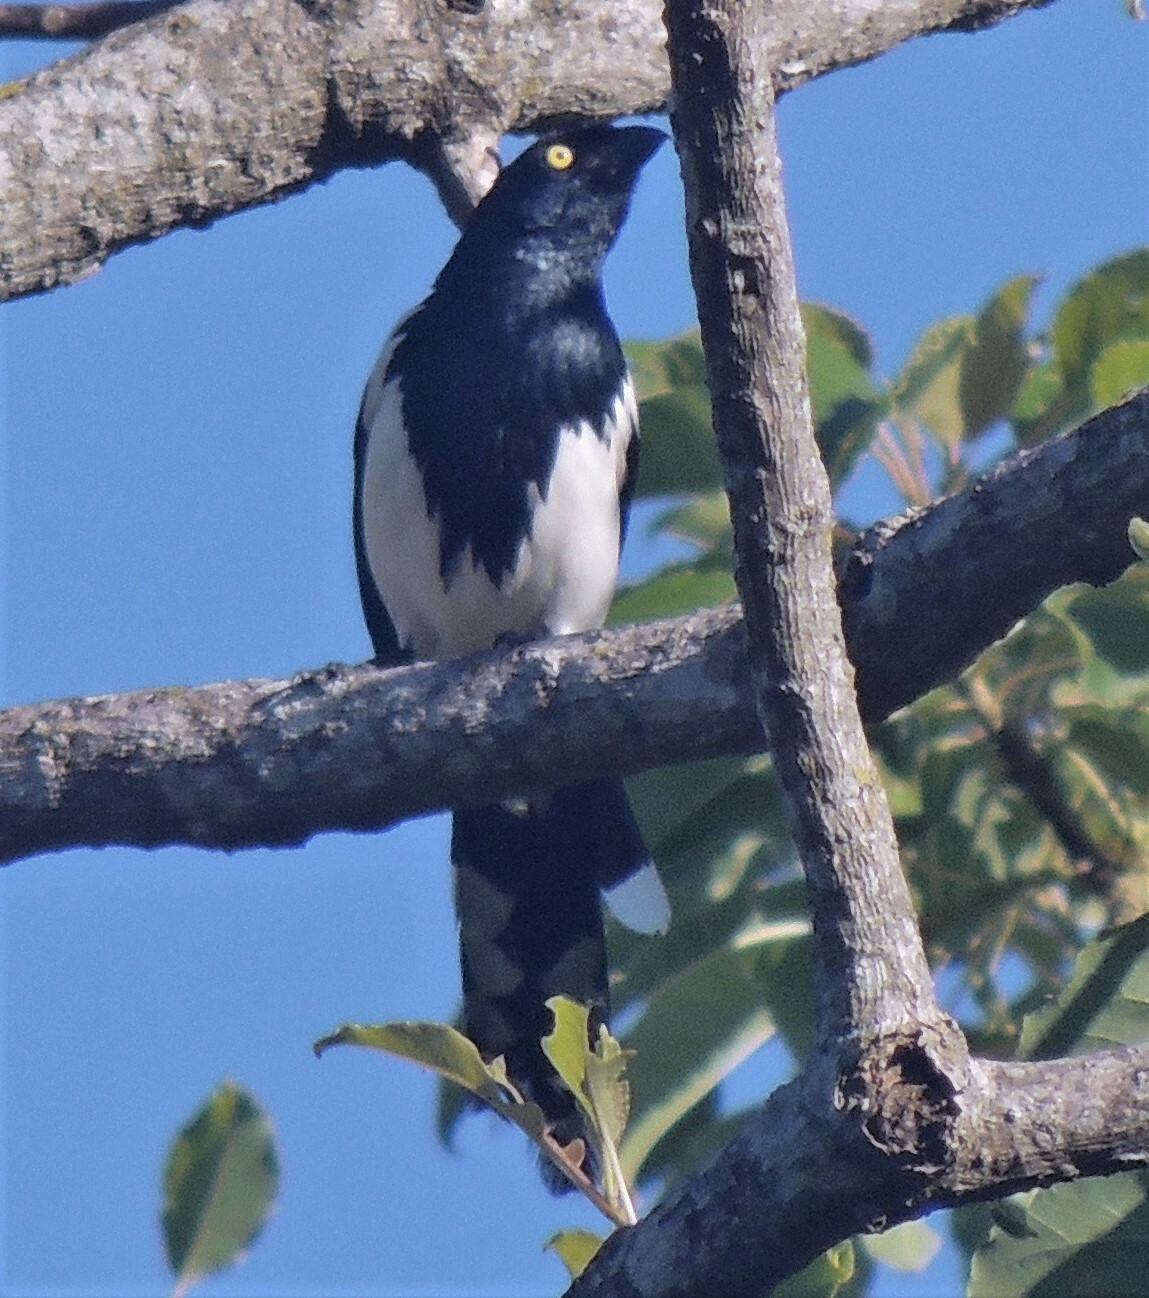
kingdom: Animalia
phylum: Chordata
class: Aves
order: Passeriformes
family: Thraupidae
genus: Cissopis
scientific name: Cissopis leverianus
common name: Magpie tanager
